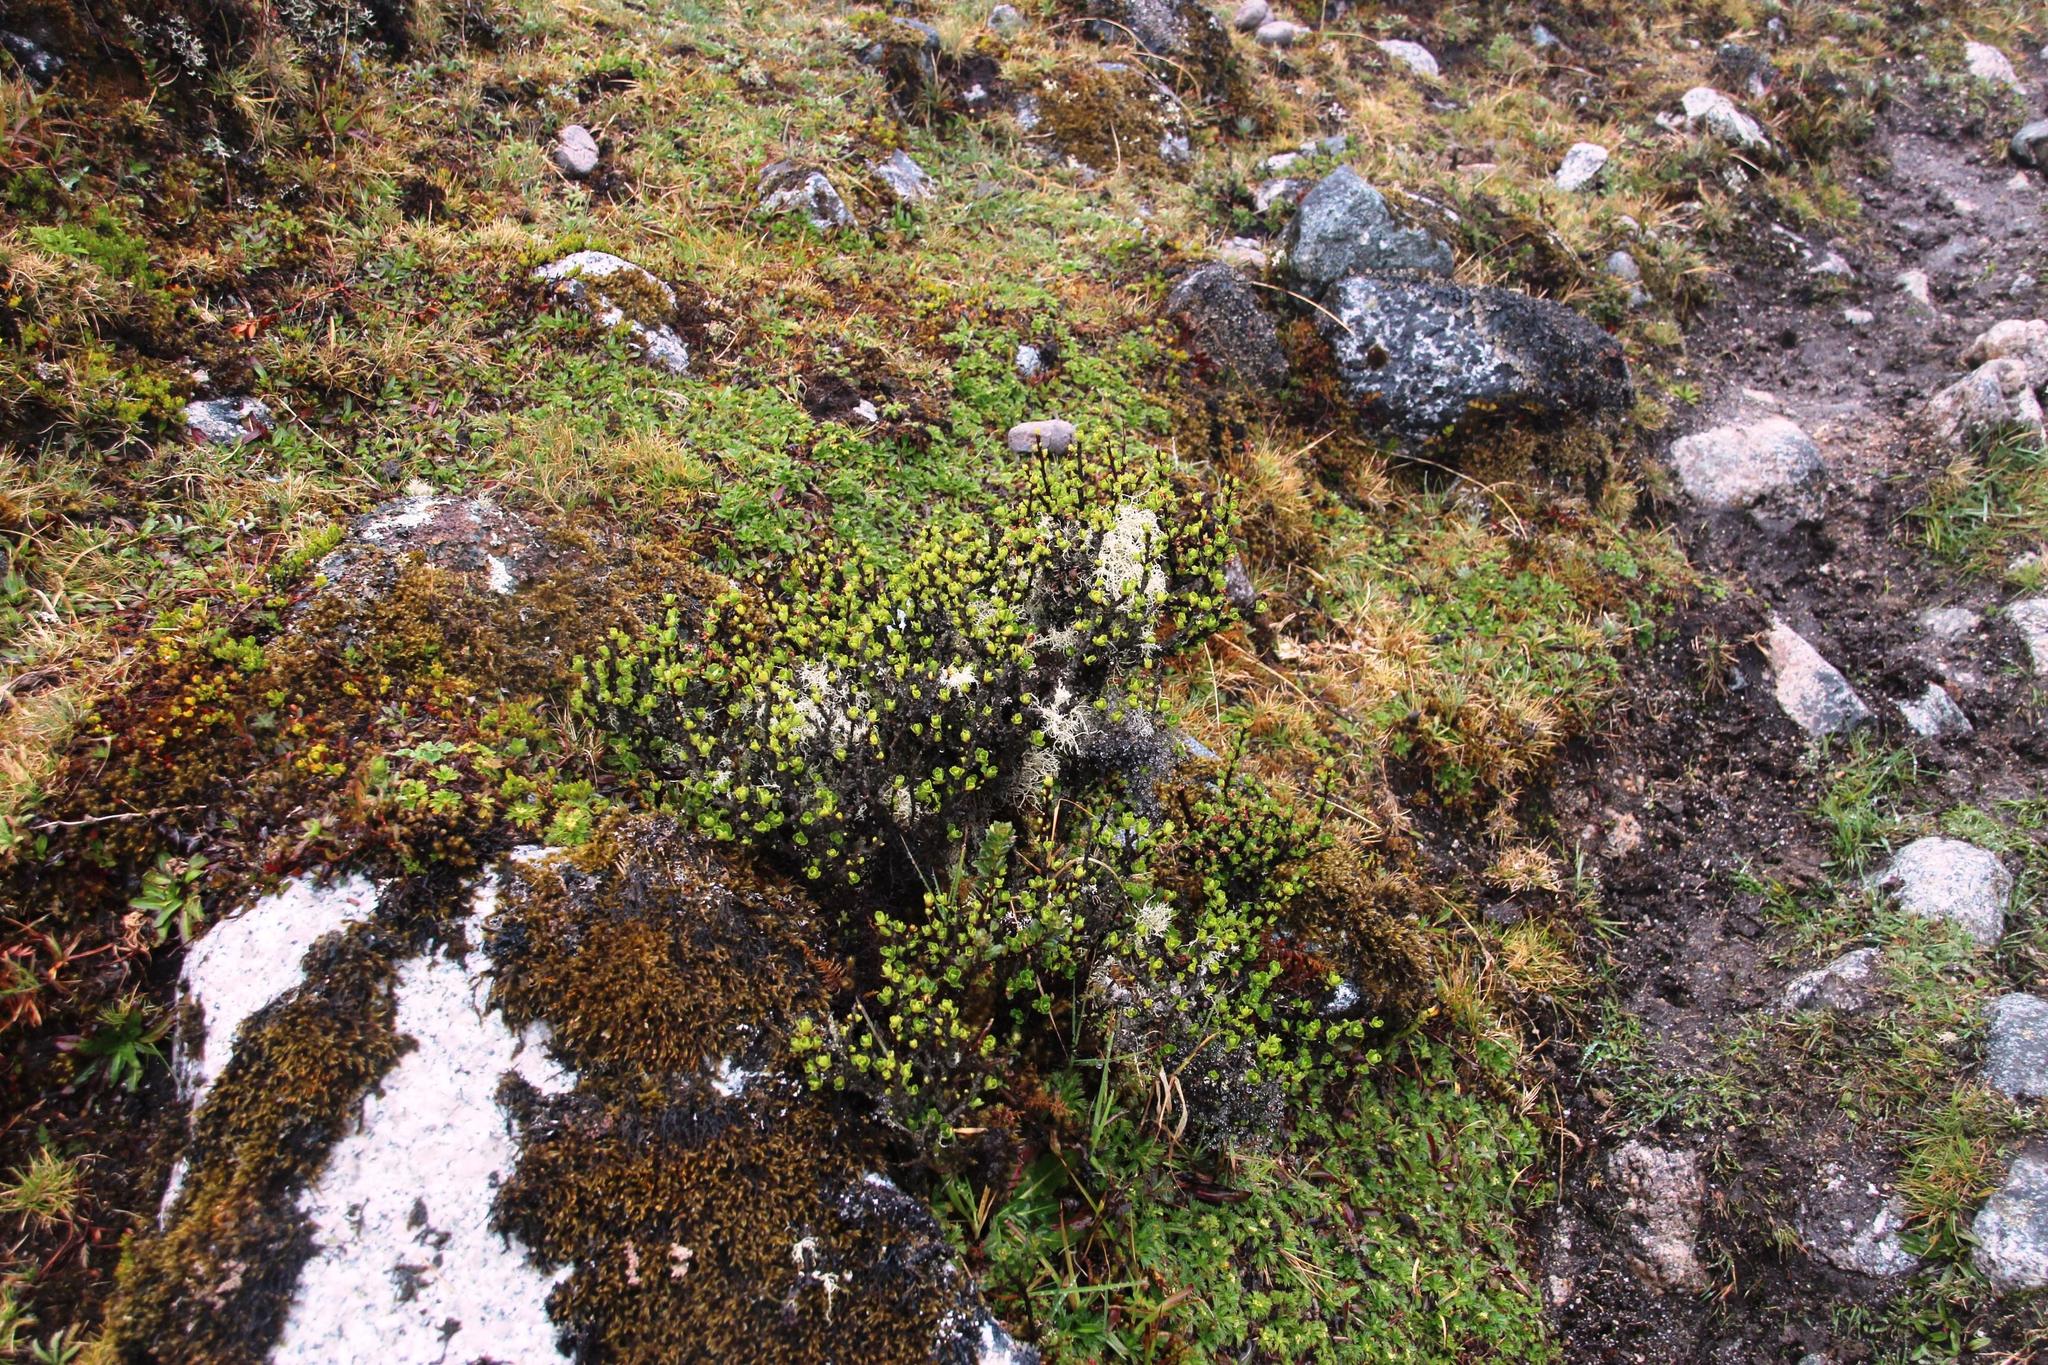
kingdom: Plantae
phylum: Tracheophyta
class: Magnoliopsida
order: Saxifragales
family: Grossulariaceae
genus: Ribes
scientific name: Ribes cuneifolium
